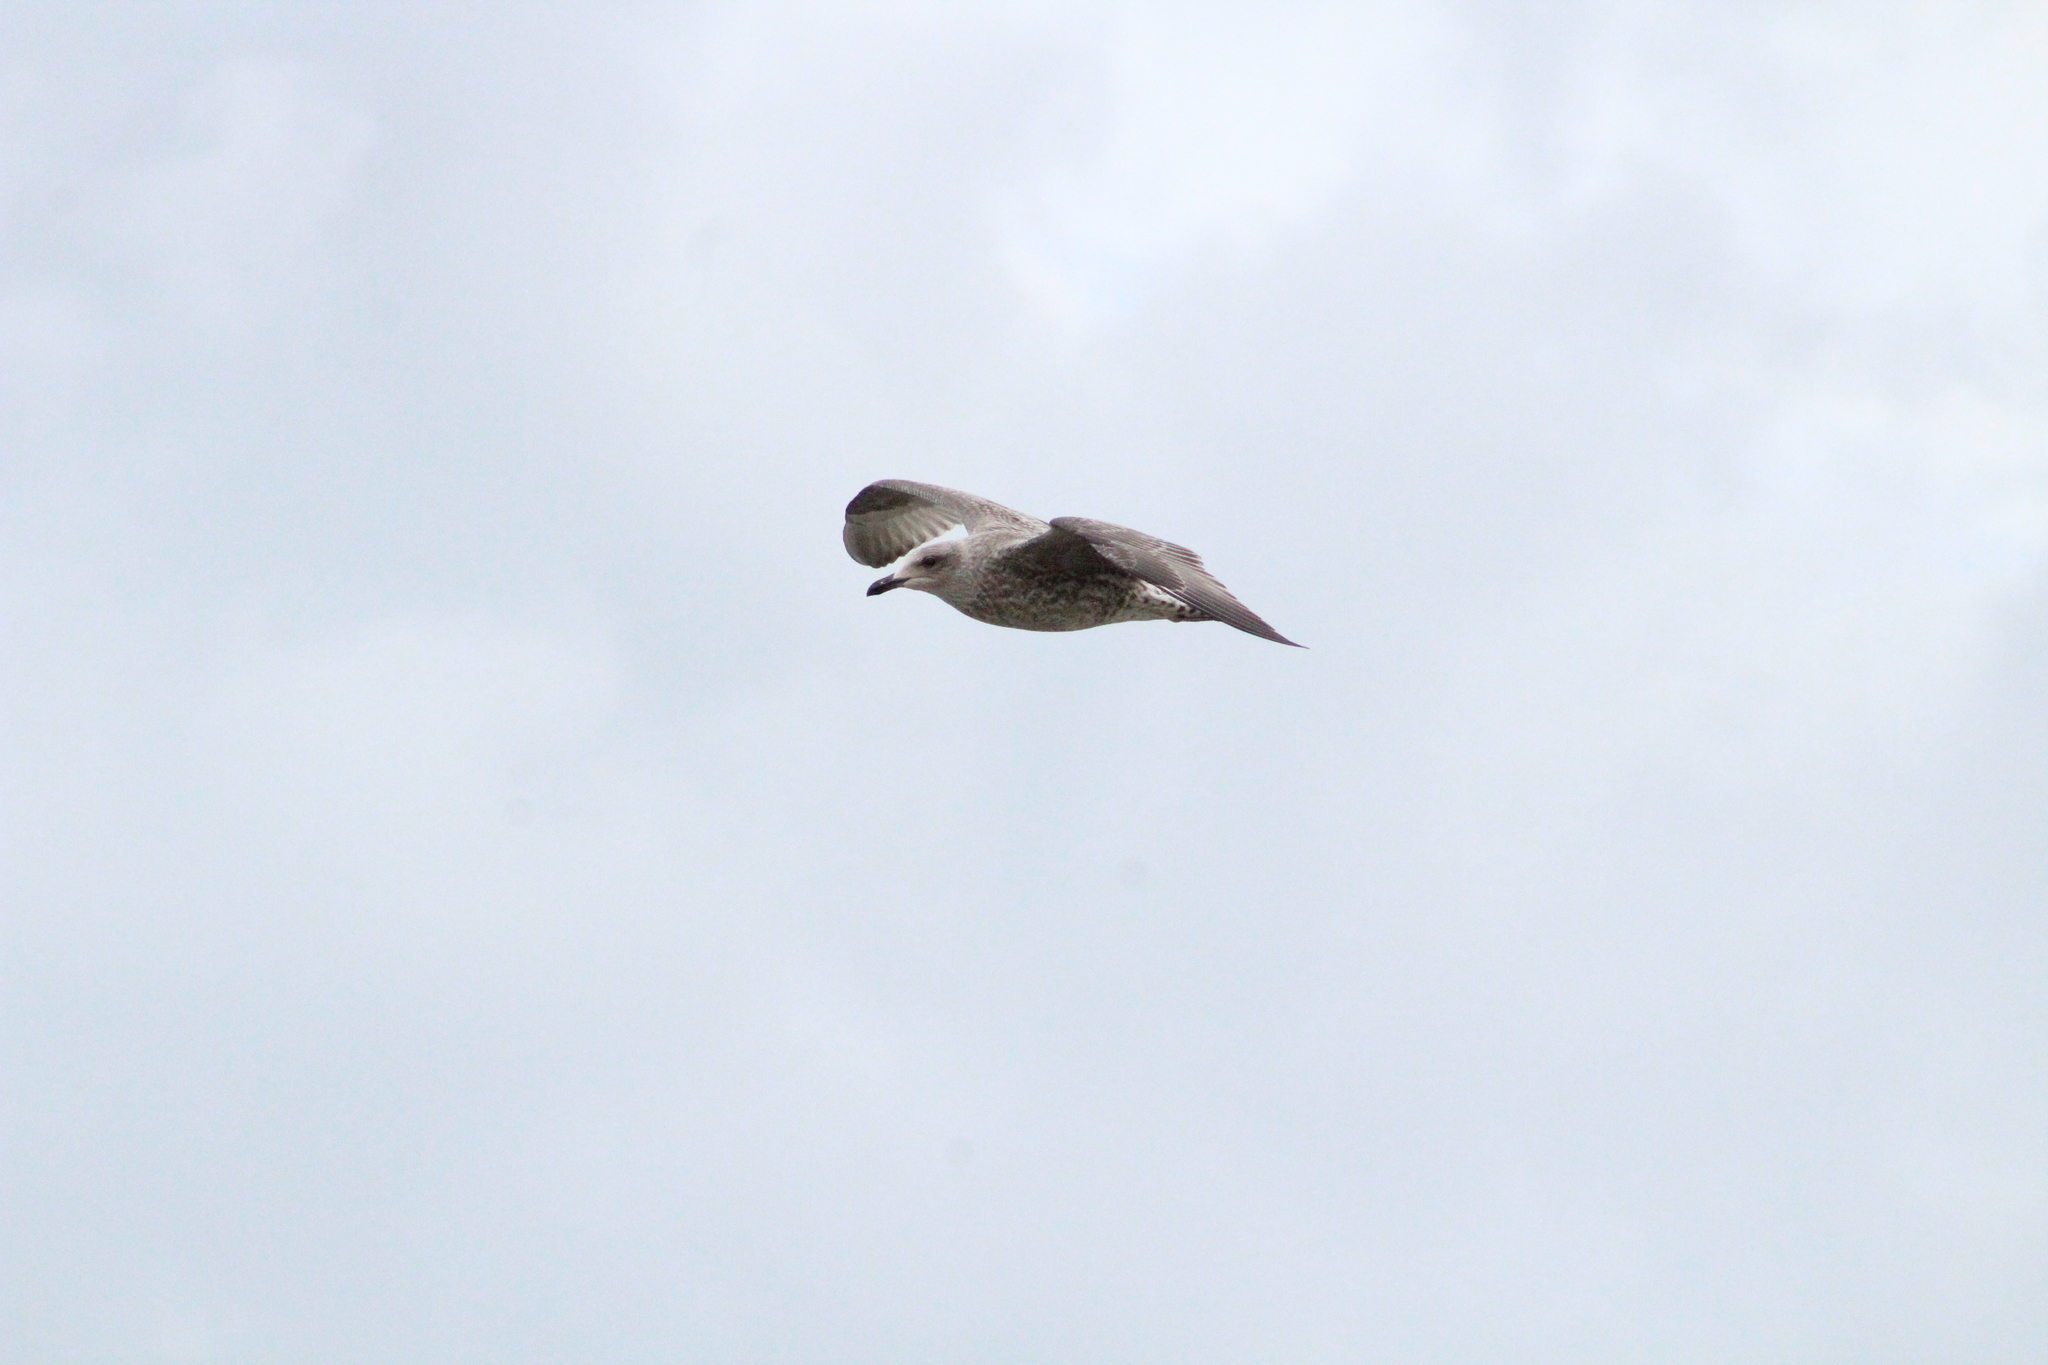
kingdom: Animalia
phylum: Chordata
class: Aves
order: Charadriiformes
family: Laridae
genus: Larus
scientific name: Larus argentatus
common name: Herring gull
